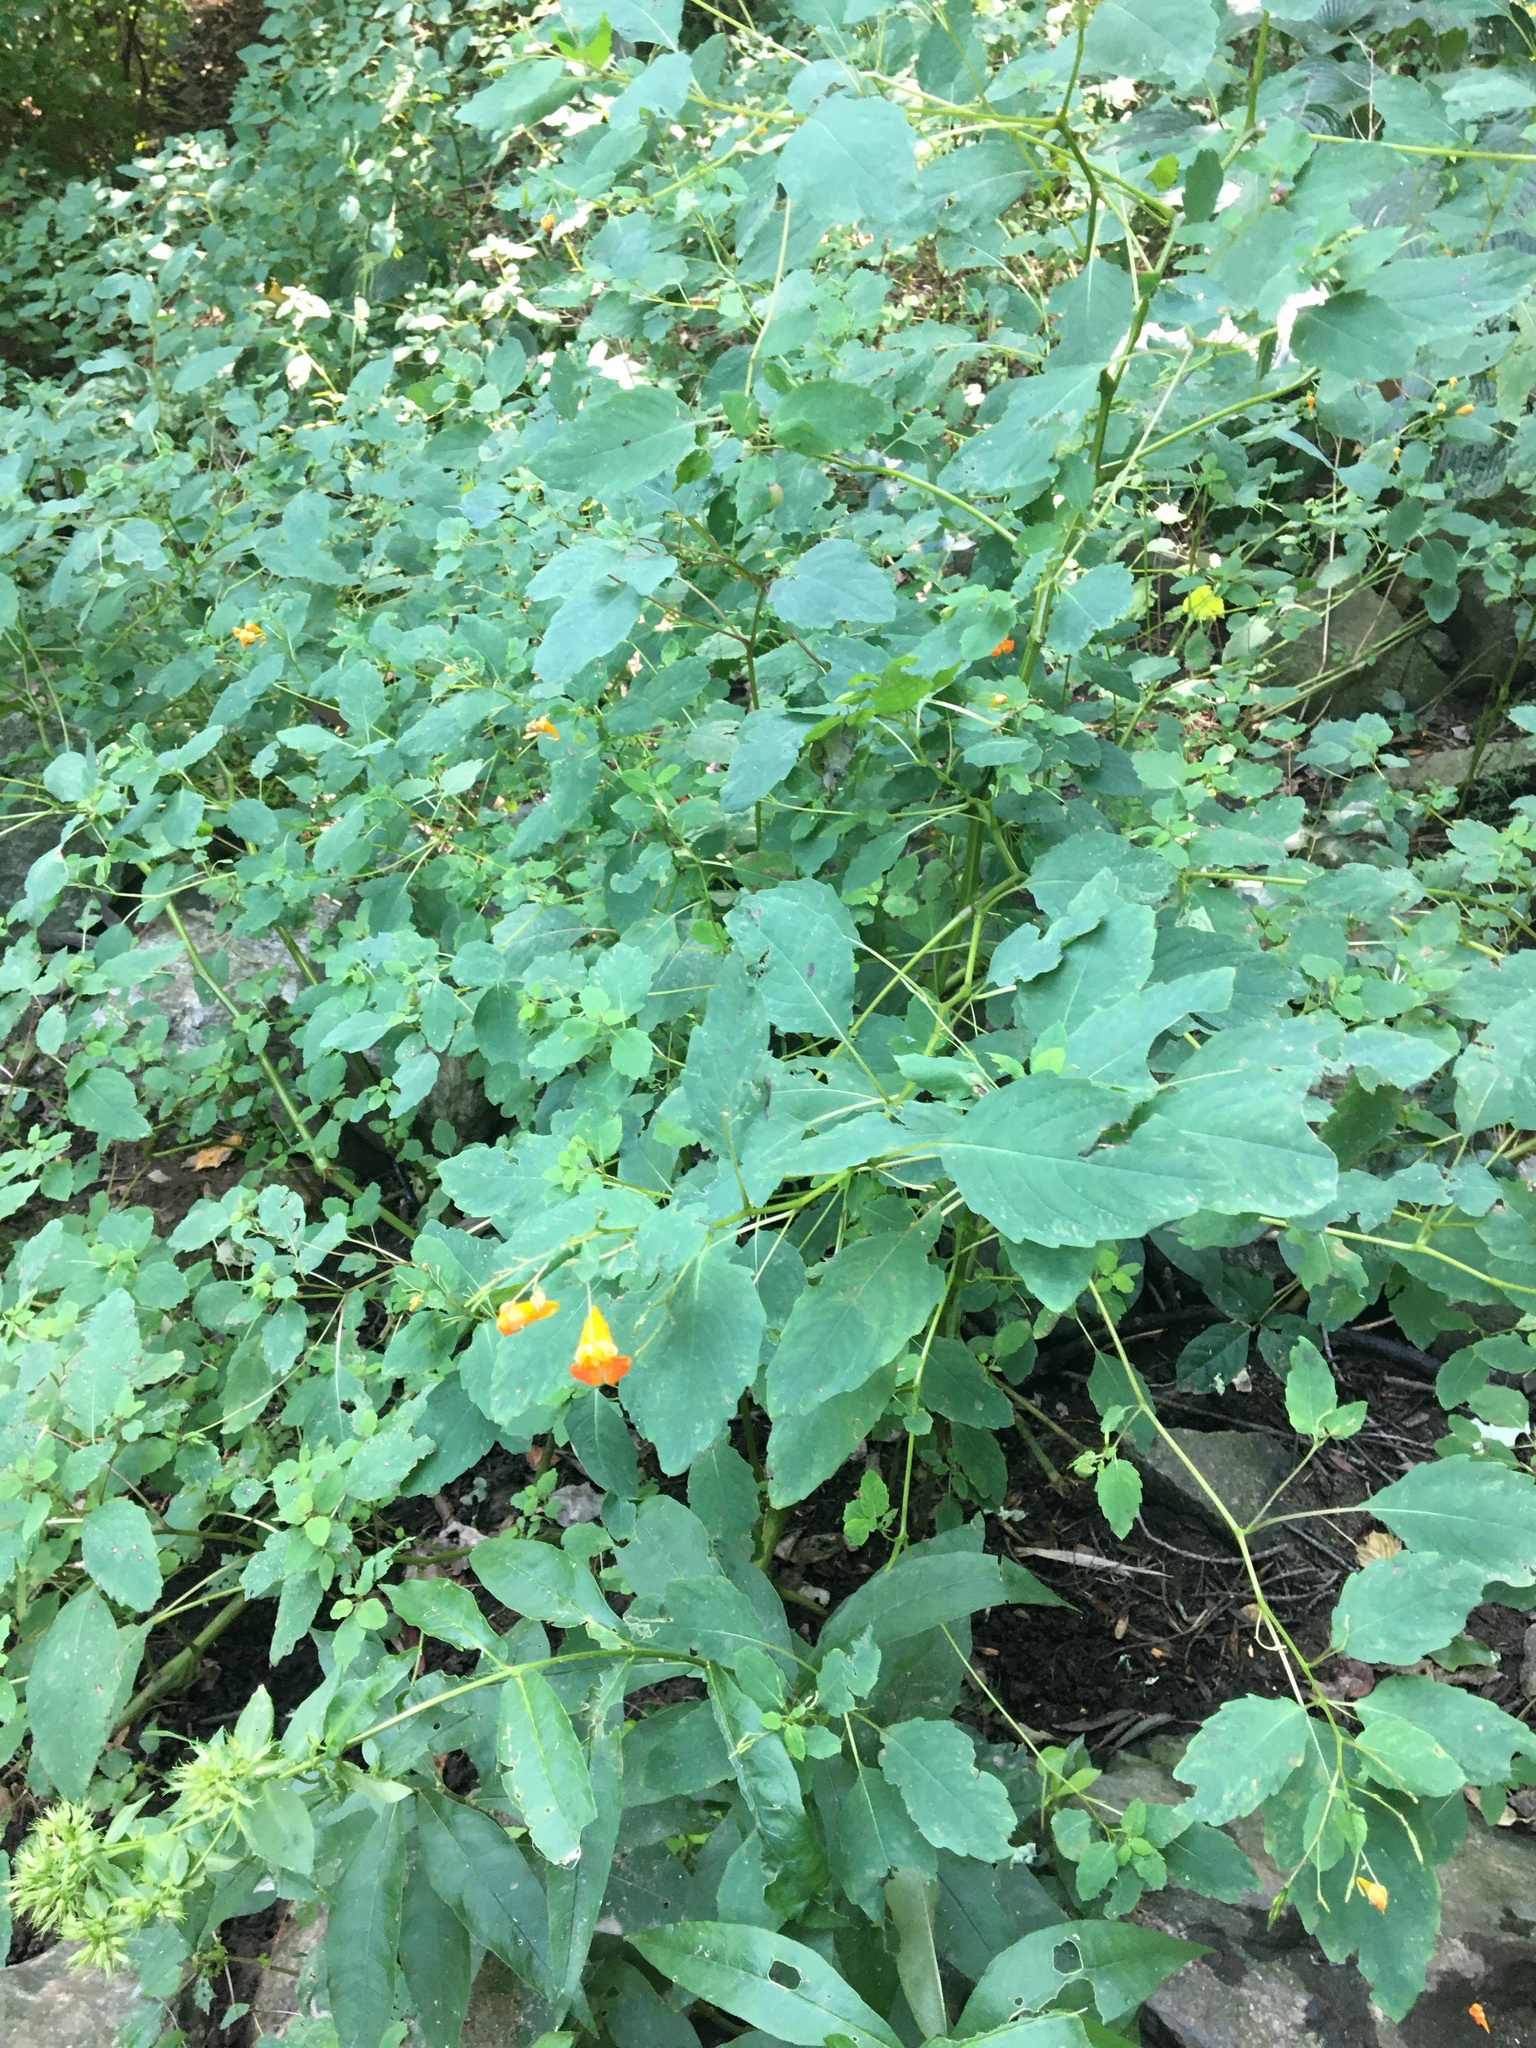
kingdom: Plantae
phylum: Tracheophyta
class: Magnoliopsida
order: Ericales
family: Balsaminaceae
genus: Impatiens
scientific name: Impatiens capensis
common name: Orange balsam
